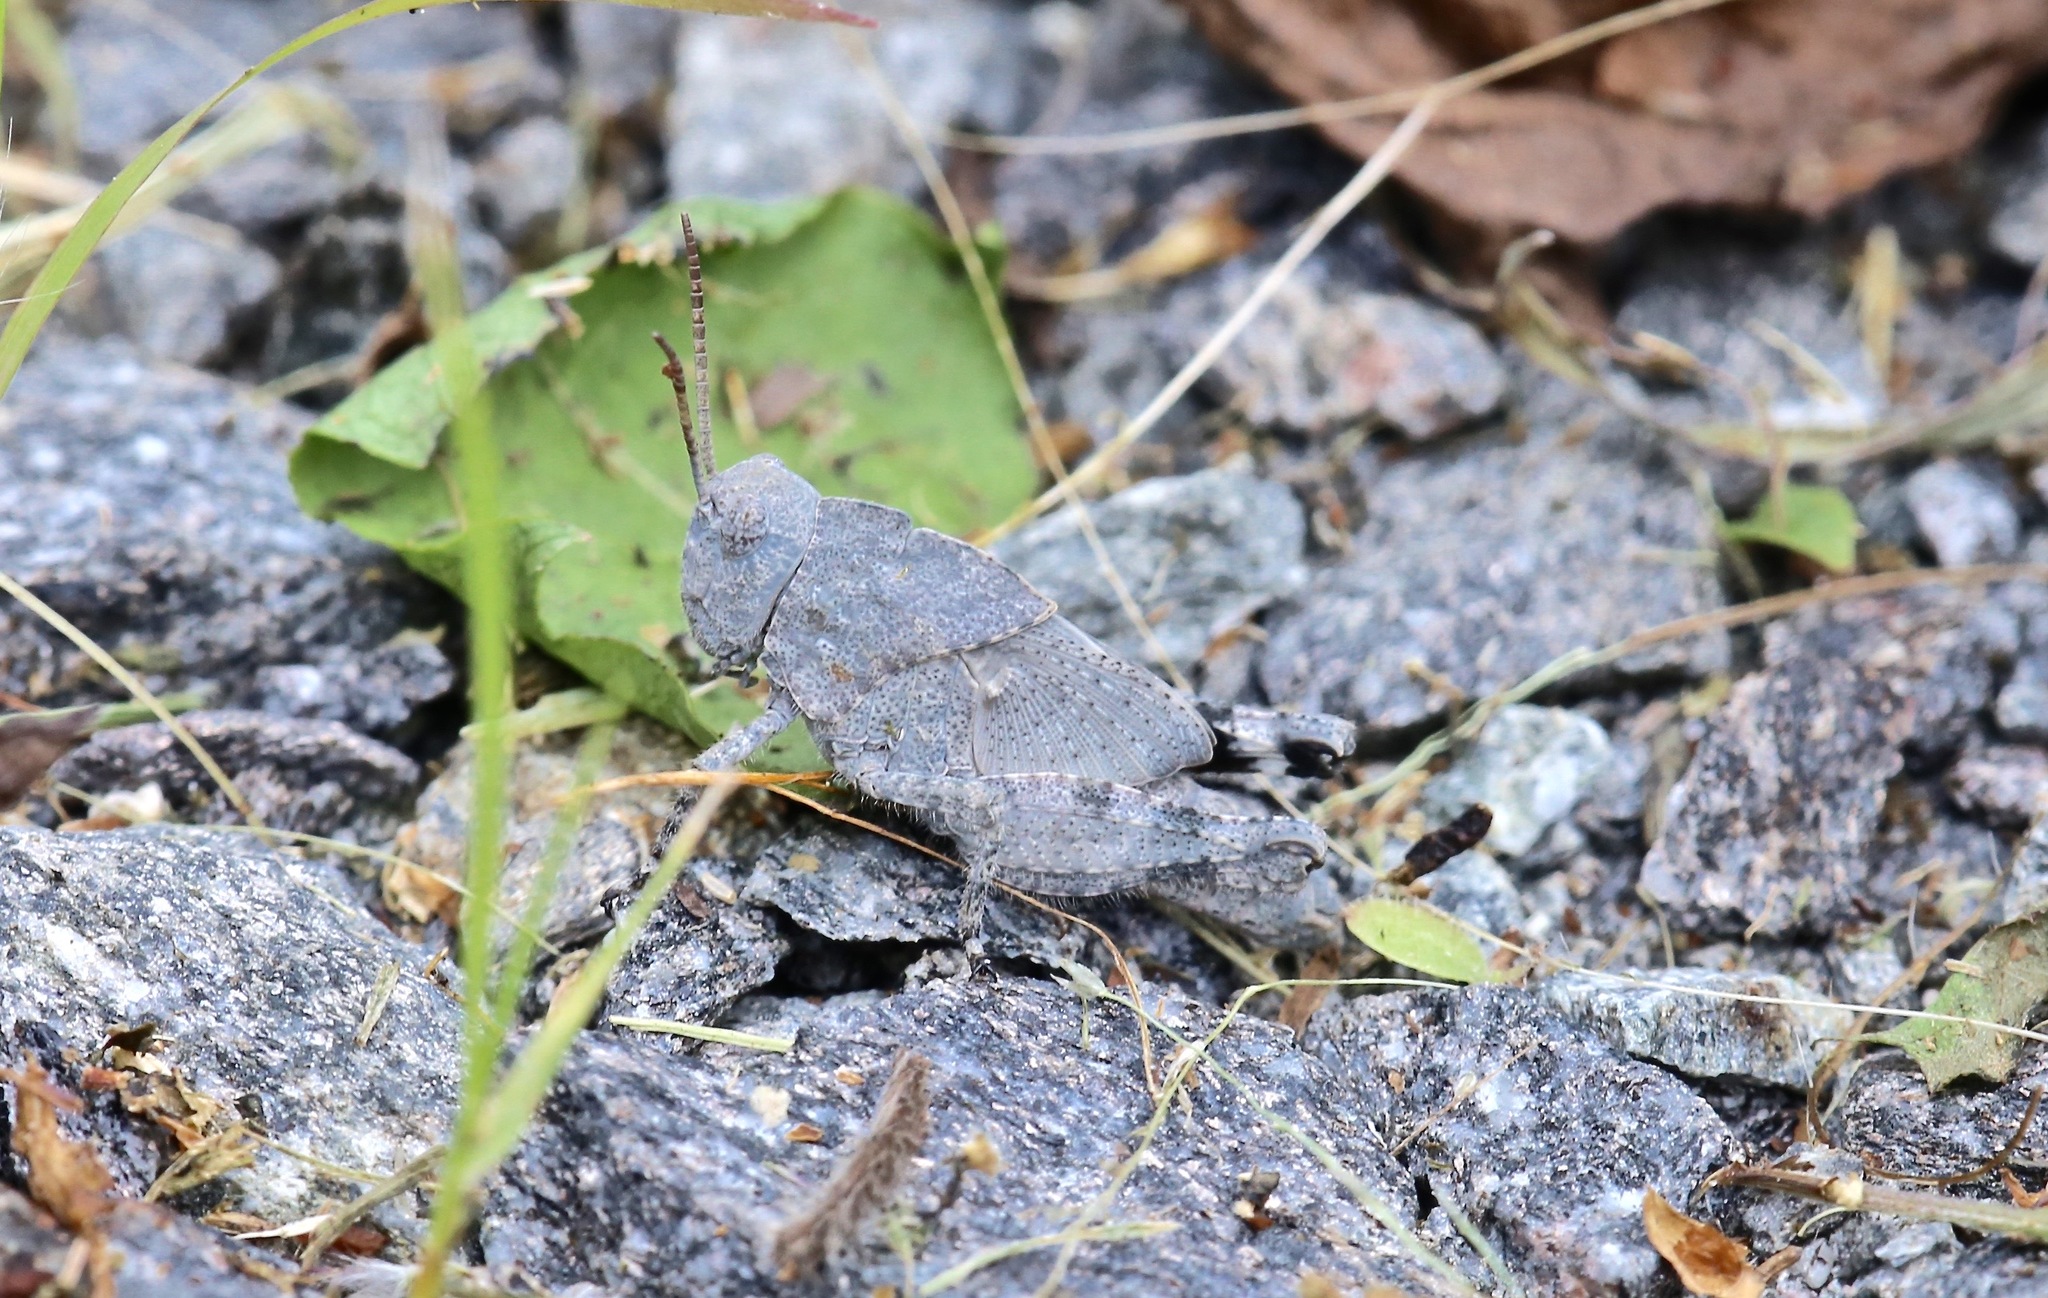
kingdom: Animalia
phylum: Arthropoda
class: Insecta
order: Orthoptera
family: Acrididae
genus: Dissosteira
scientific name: Dissosteira carolina
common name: Carolina grasshopper
